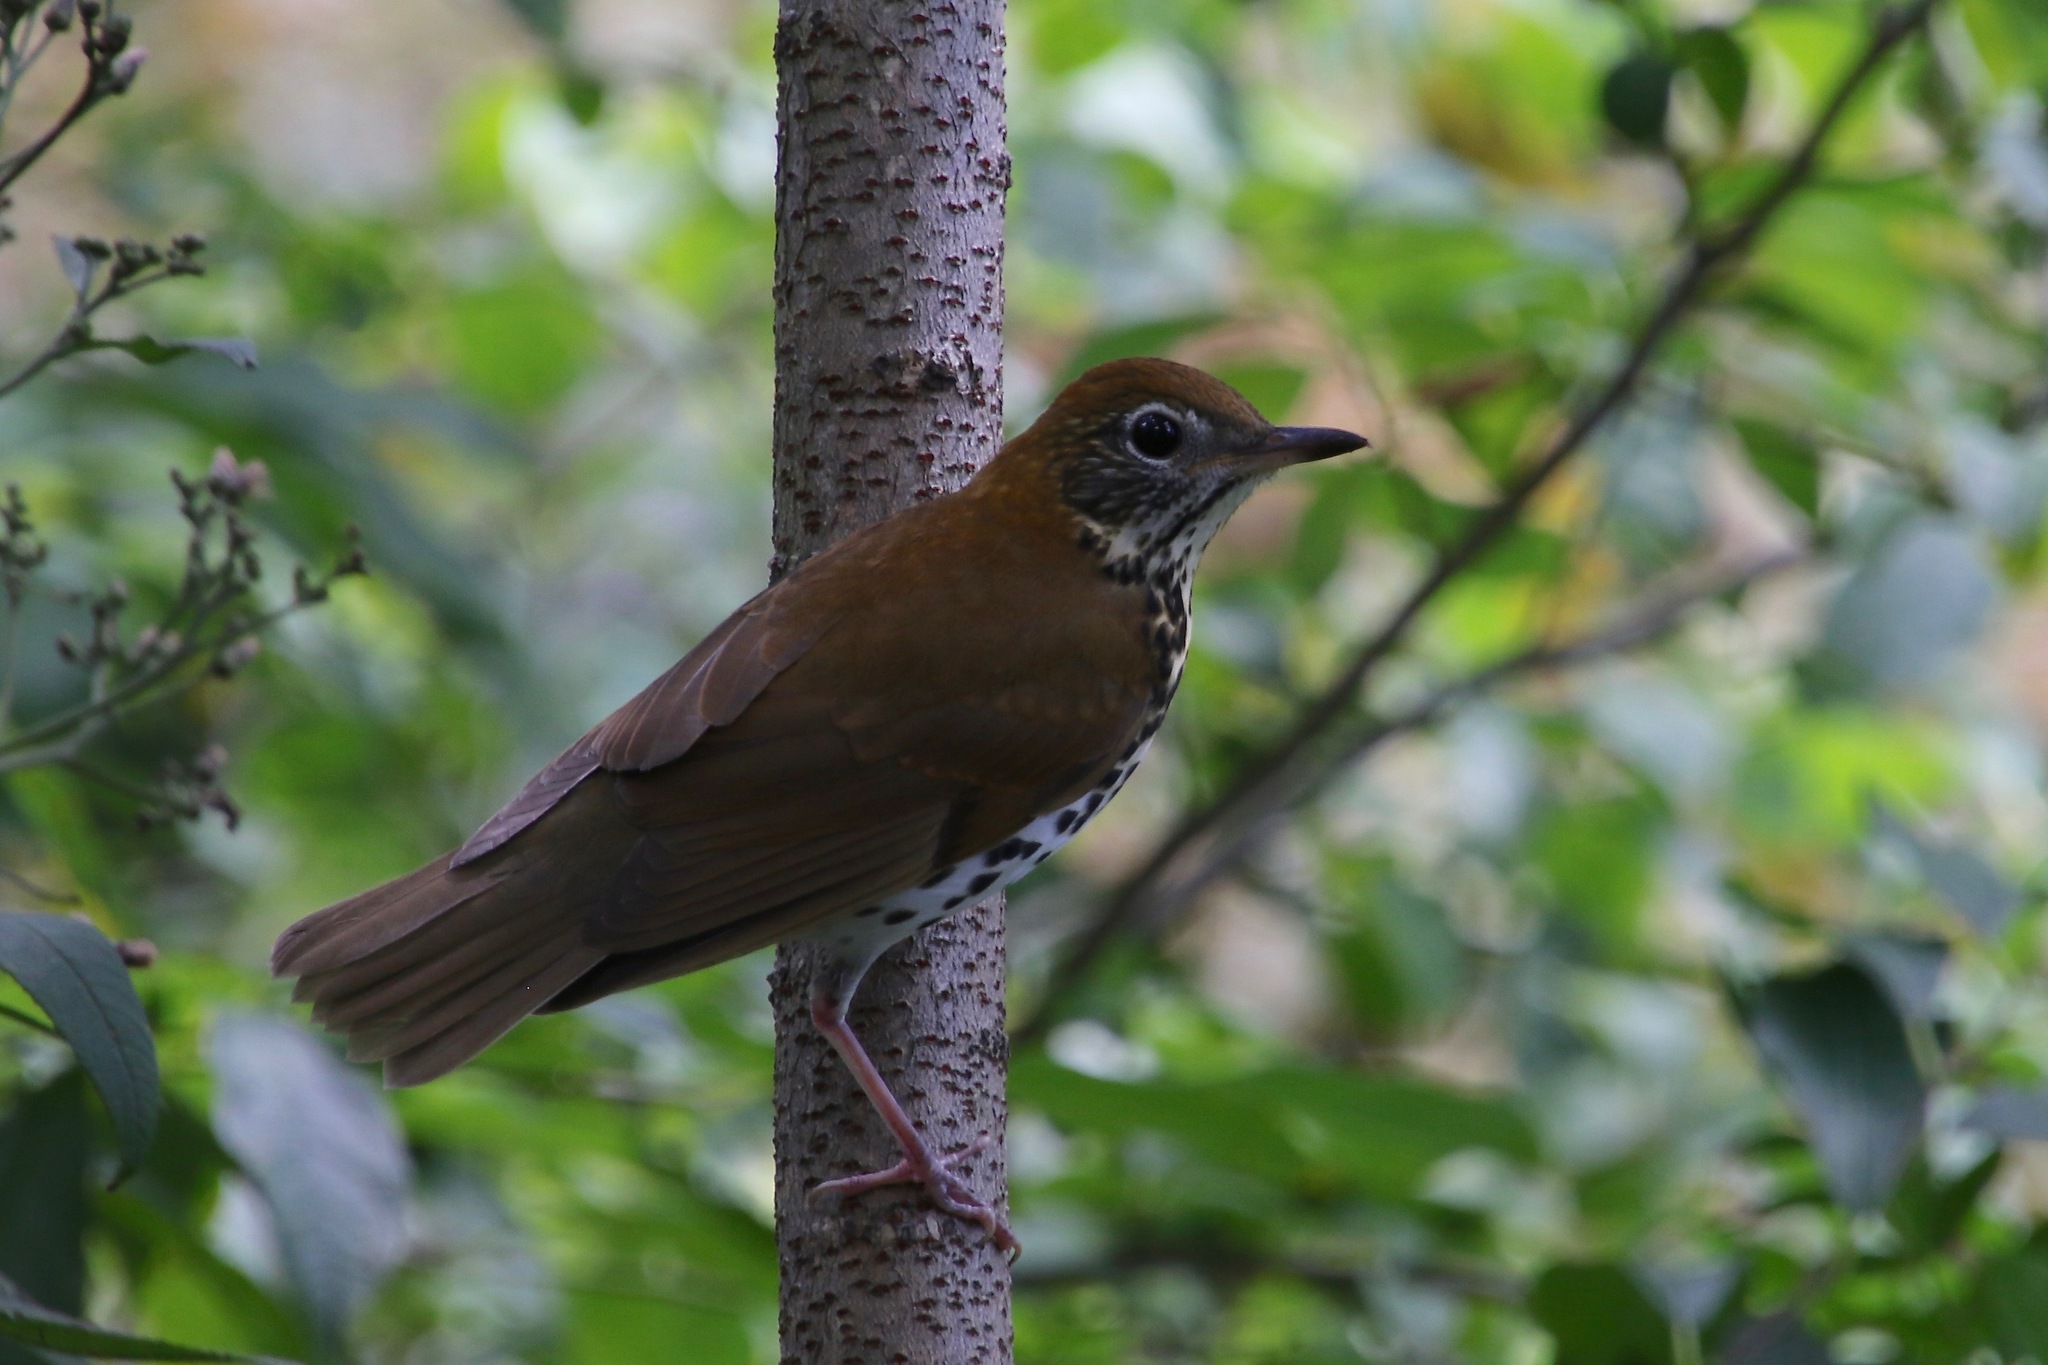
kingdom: Animalia
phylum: Chordata
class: Aves
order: Passeriformes
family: Turdidae
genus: Hylocichla
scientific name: Hylocichla mustelina
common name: Wood thrush
